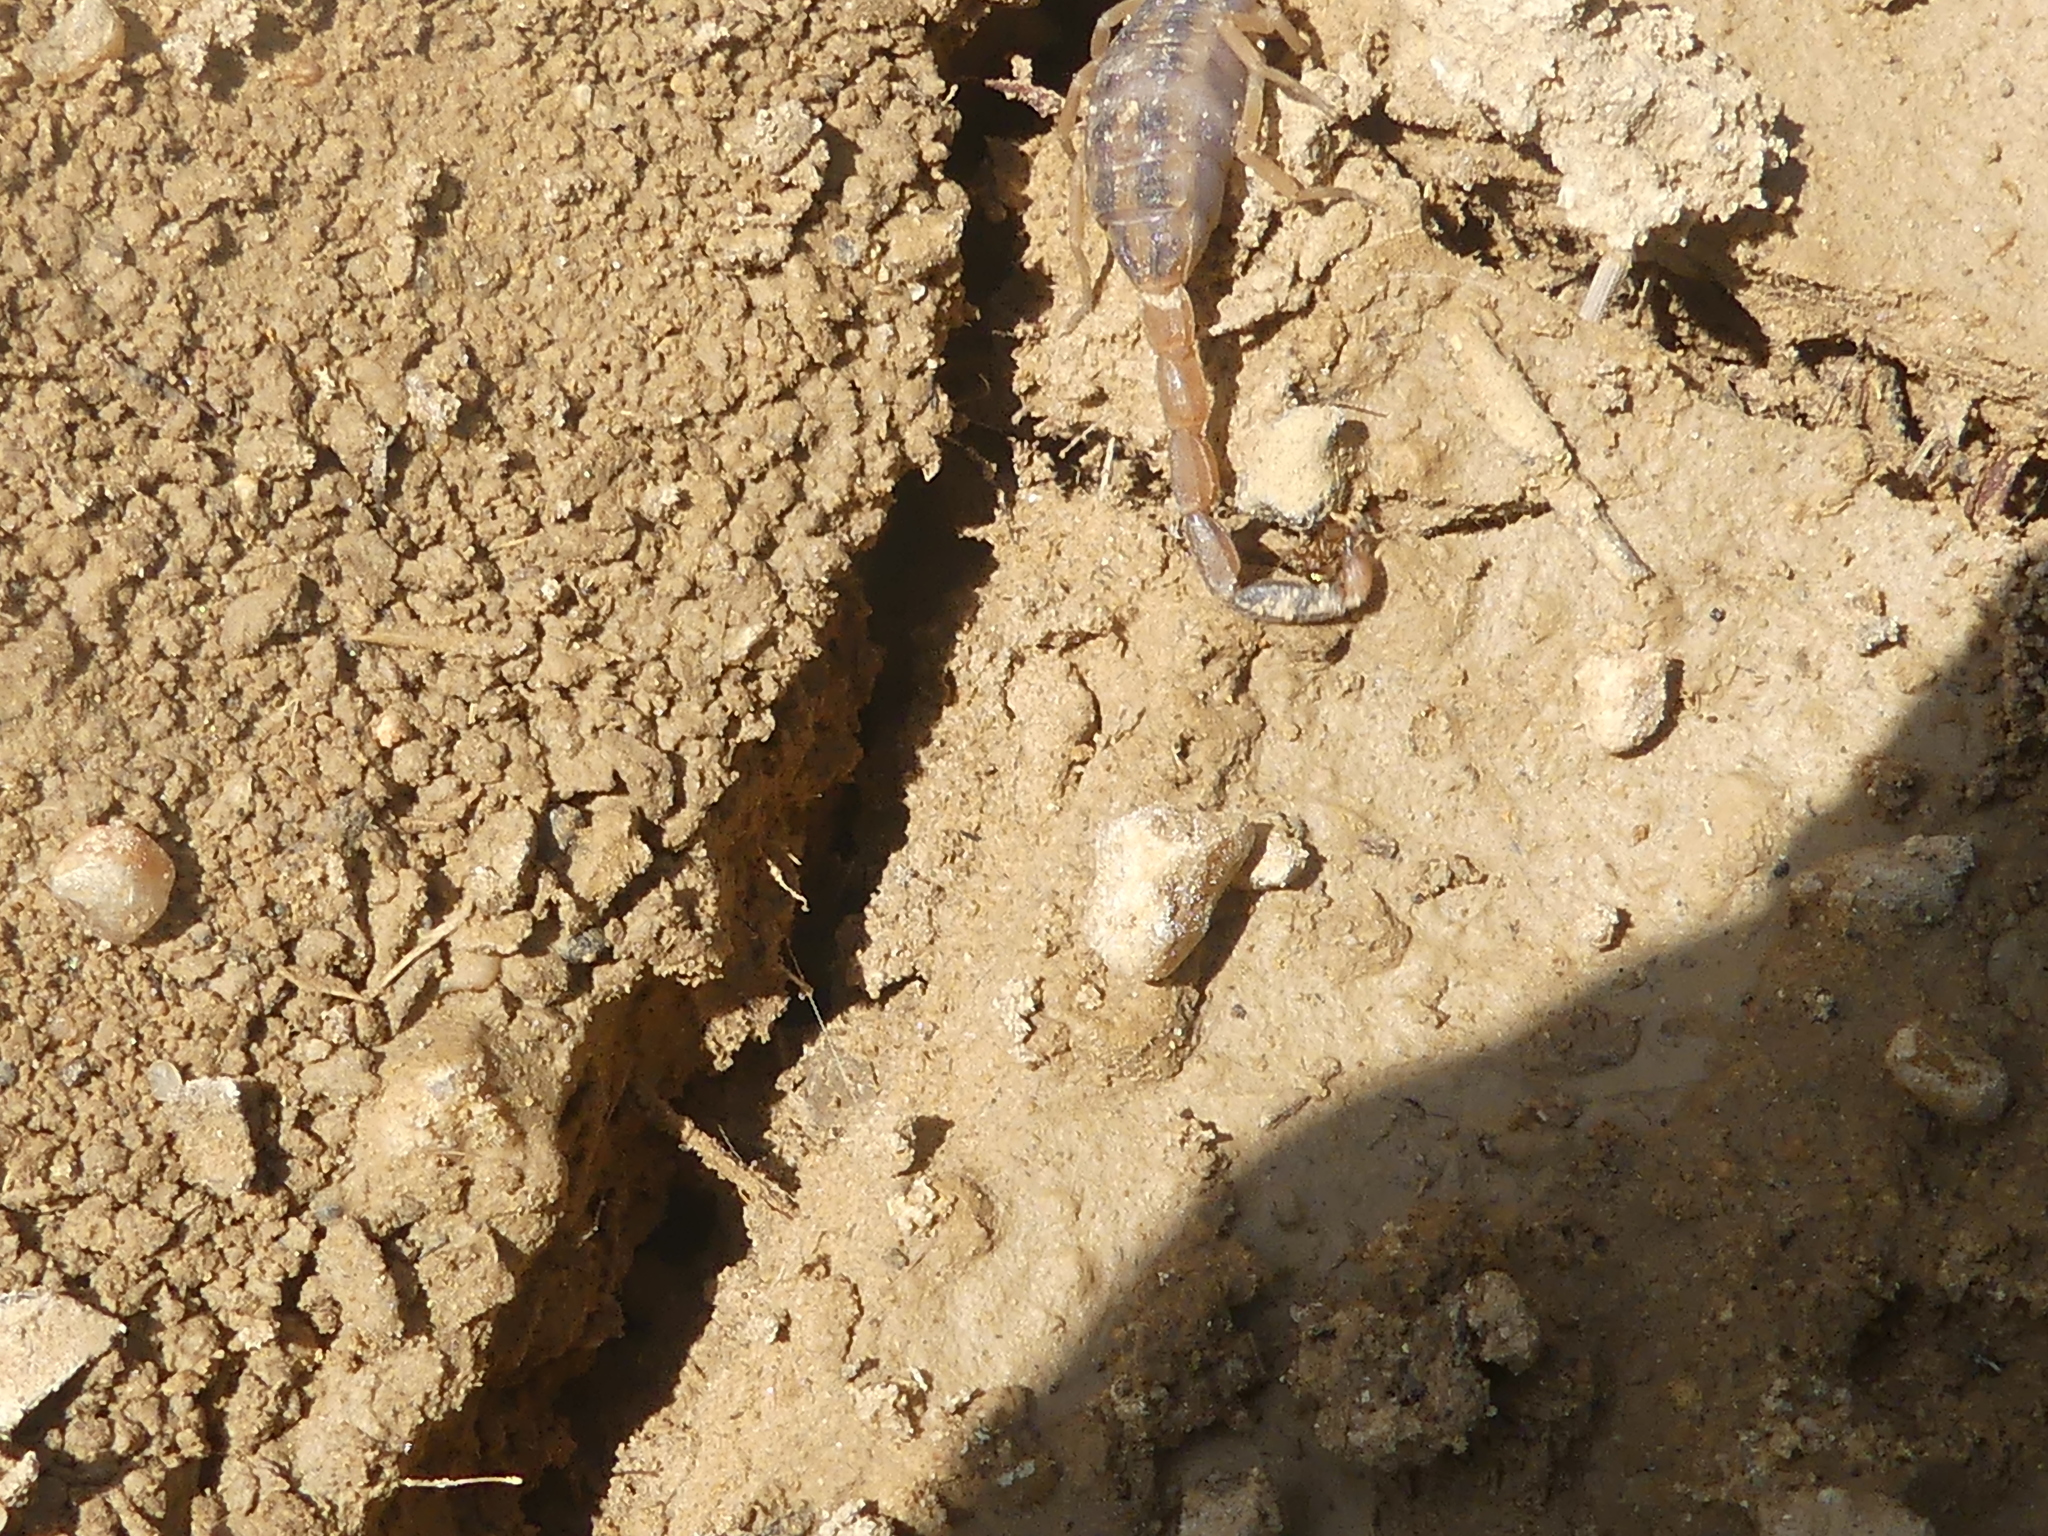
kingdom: Animalia
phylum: Arthropoda
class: Arachnida
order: Scorpiones
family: Buthidae
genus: Centruroides
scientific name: Centruroides vittatus
